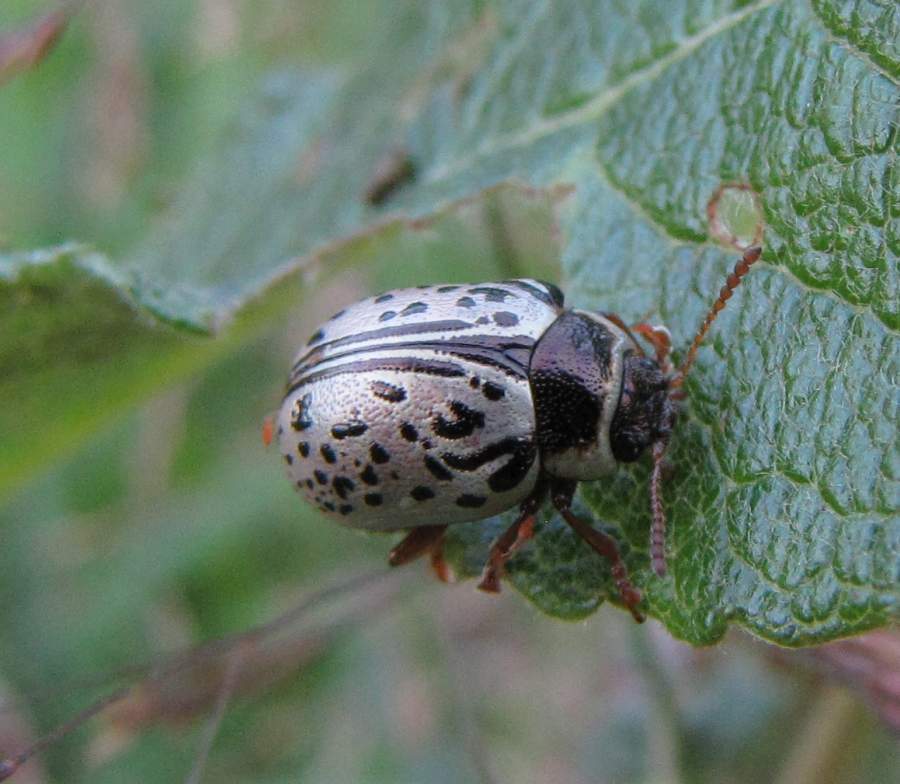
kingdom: Animalia
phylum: Arthropoda
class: Insecta
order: Coleoptera
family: Chrysomelidae
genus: Calligrapha
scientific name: Calligrapha multipunctata
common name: Common willow calligrapher beetle
